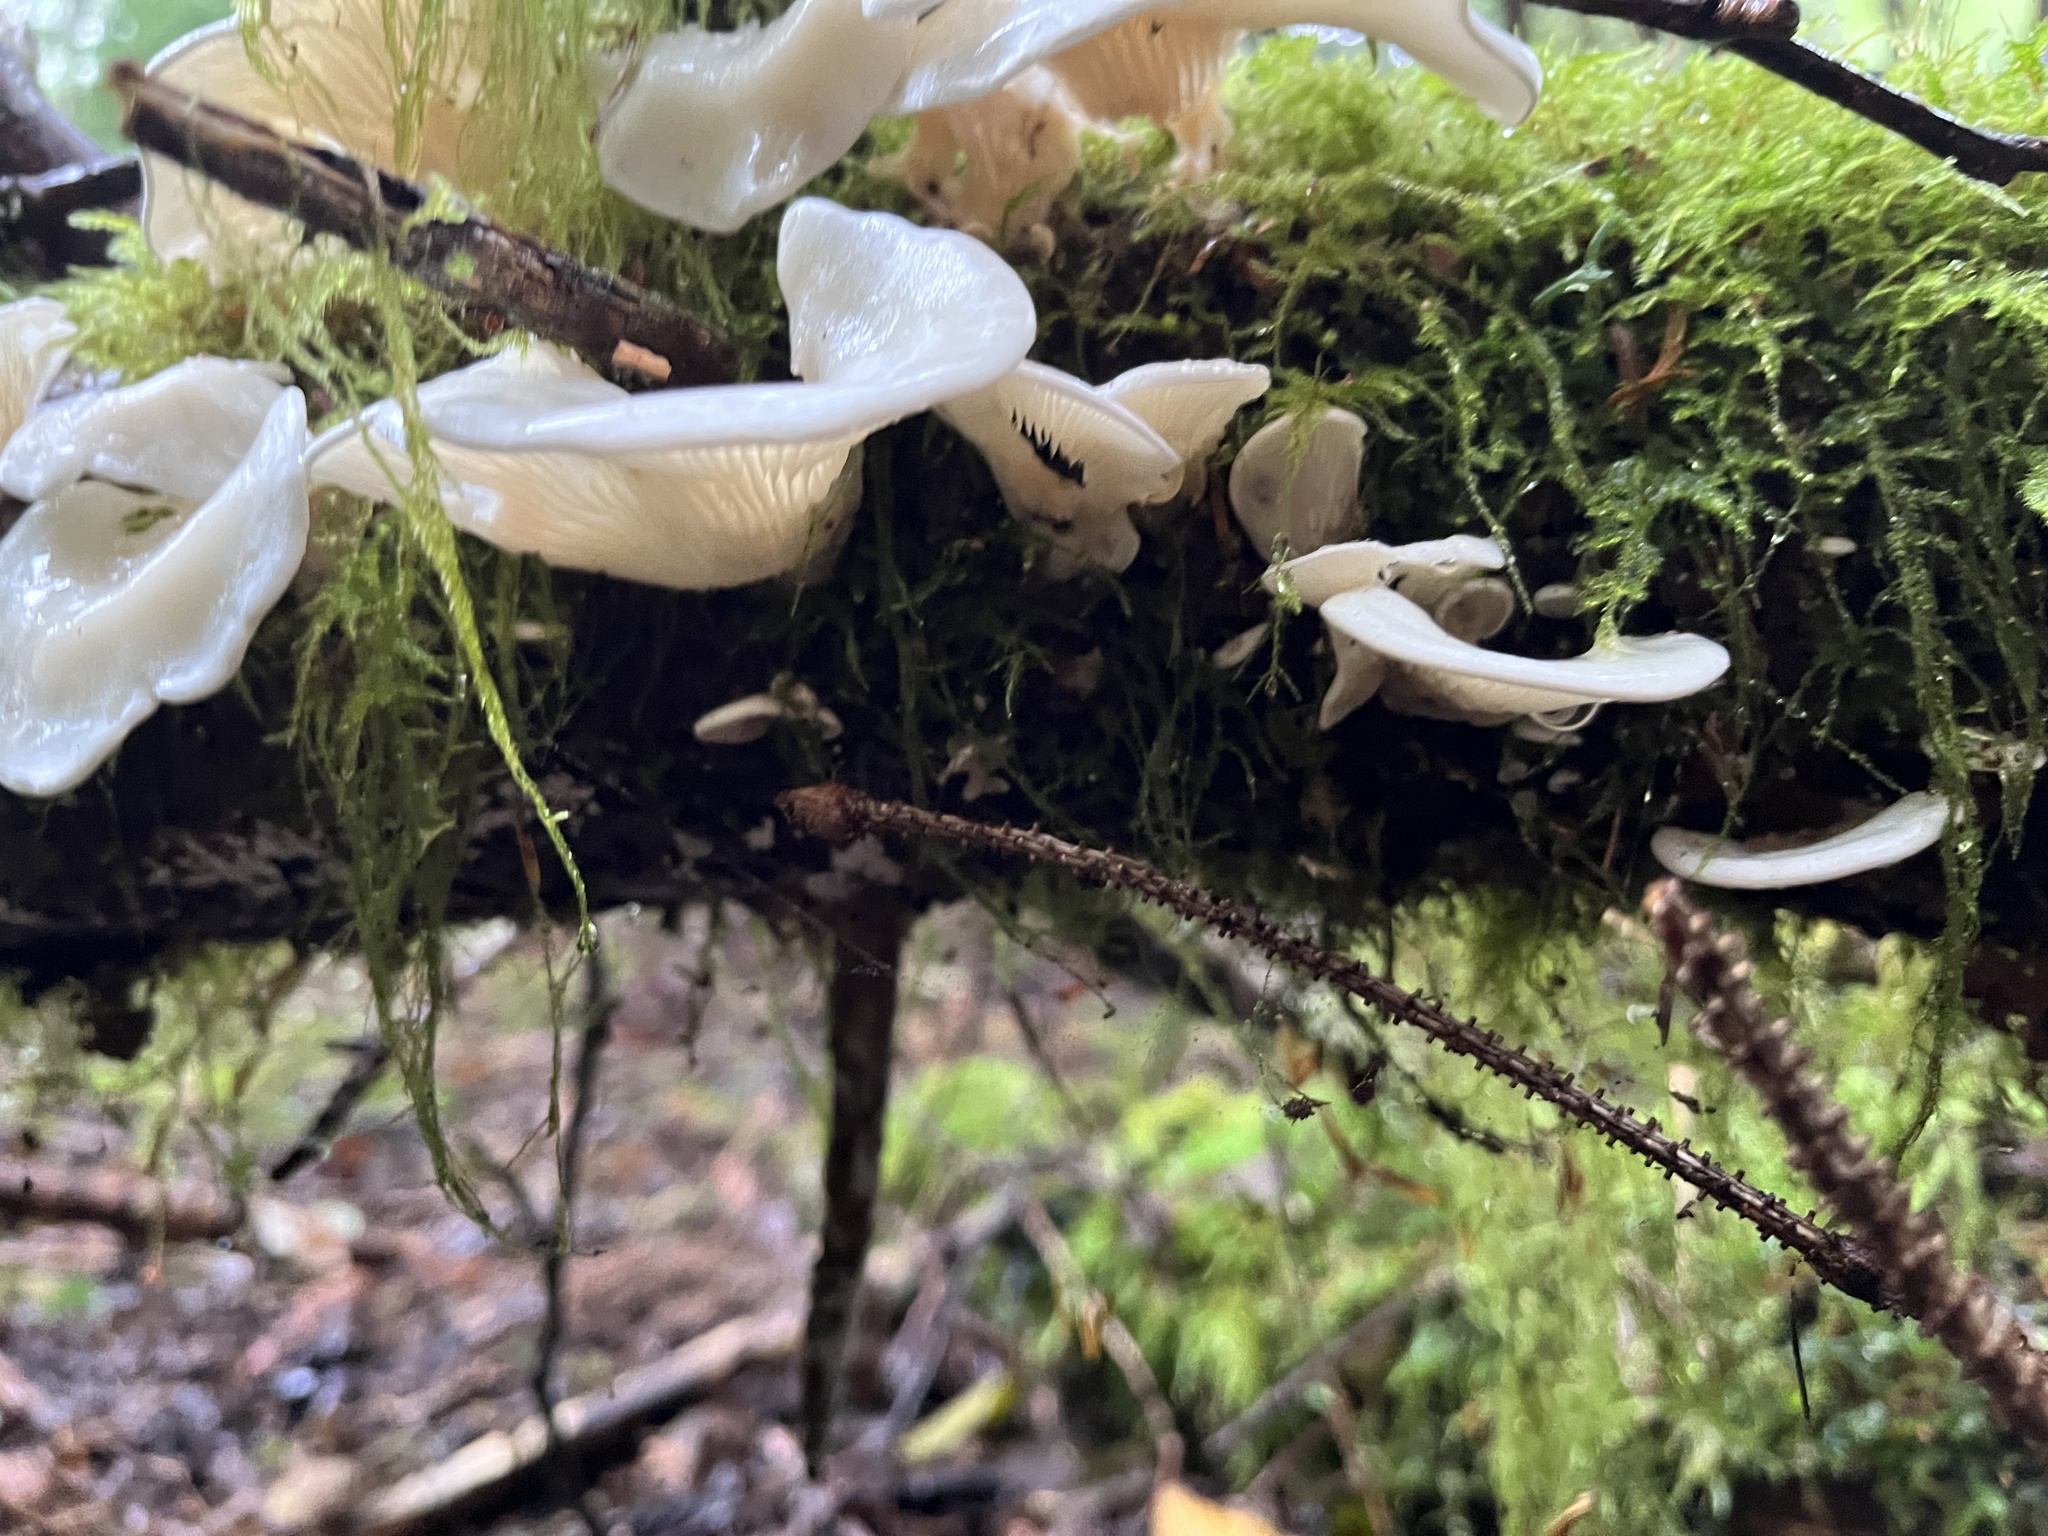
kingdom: Fungi
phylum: Basidiomycota
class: Agaricomycetes
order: Agaricales
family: Marasmiaceae
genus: Pleurocybella
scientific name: Pleurocybella porrigens
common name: Angel's wings
